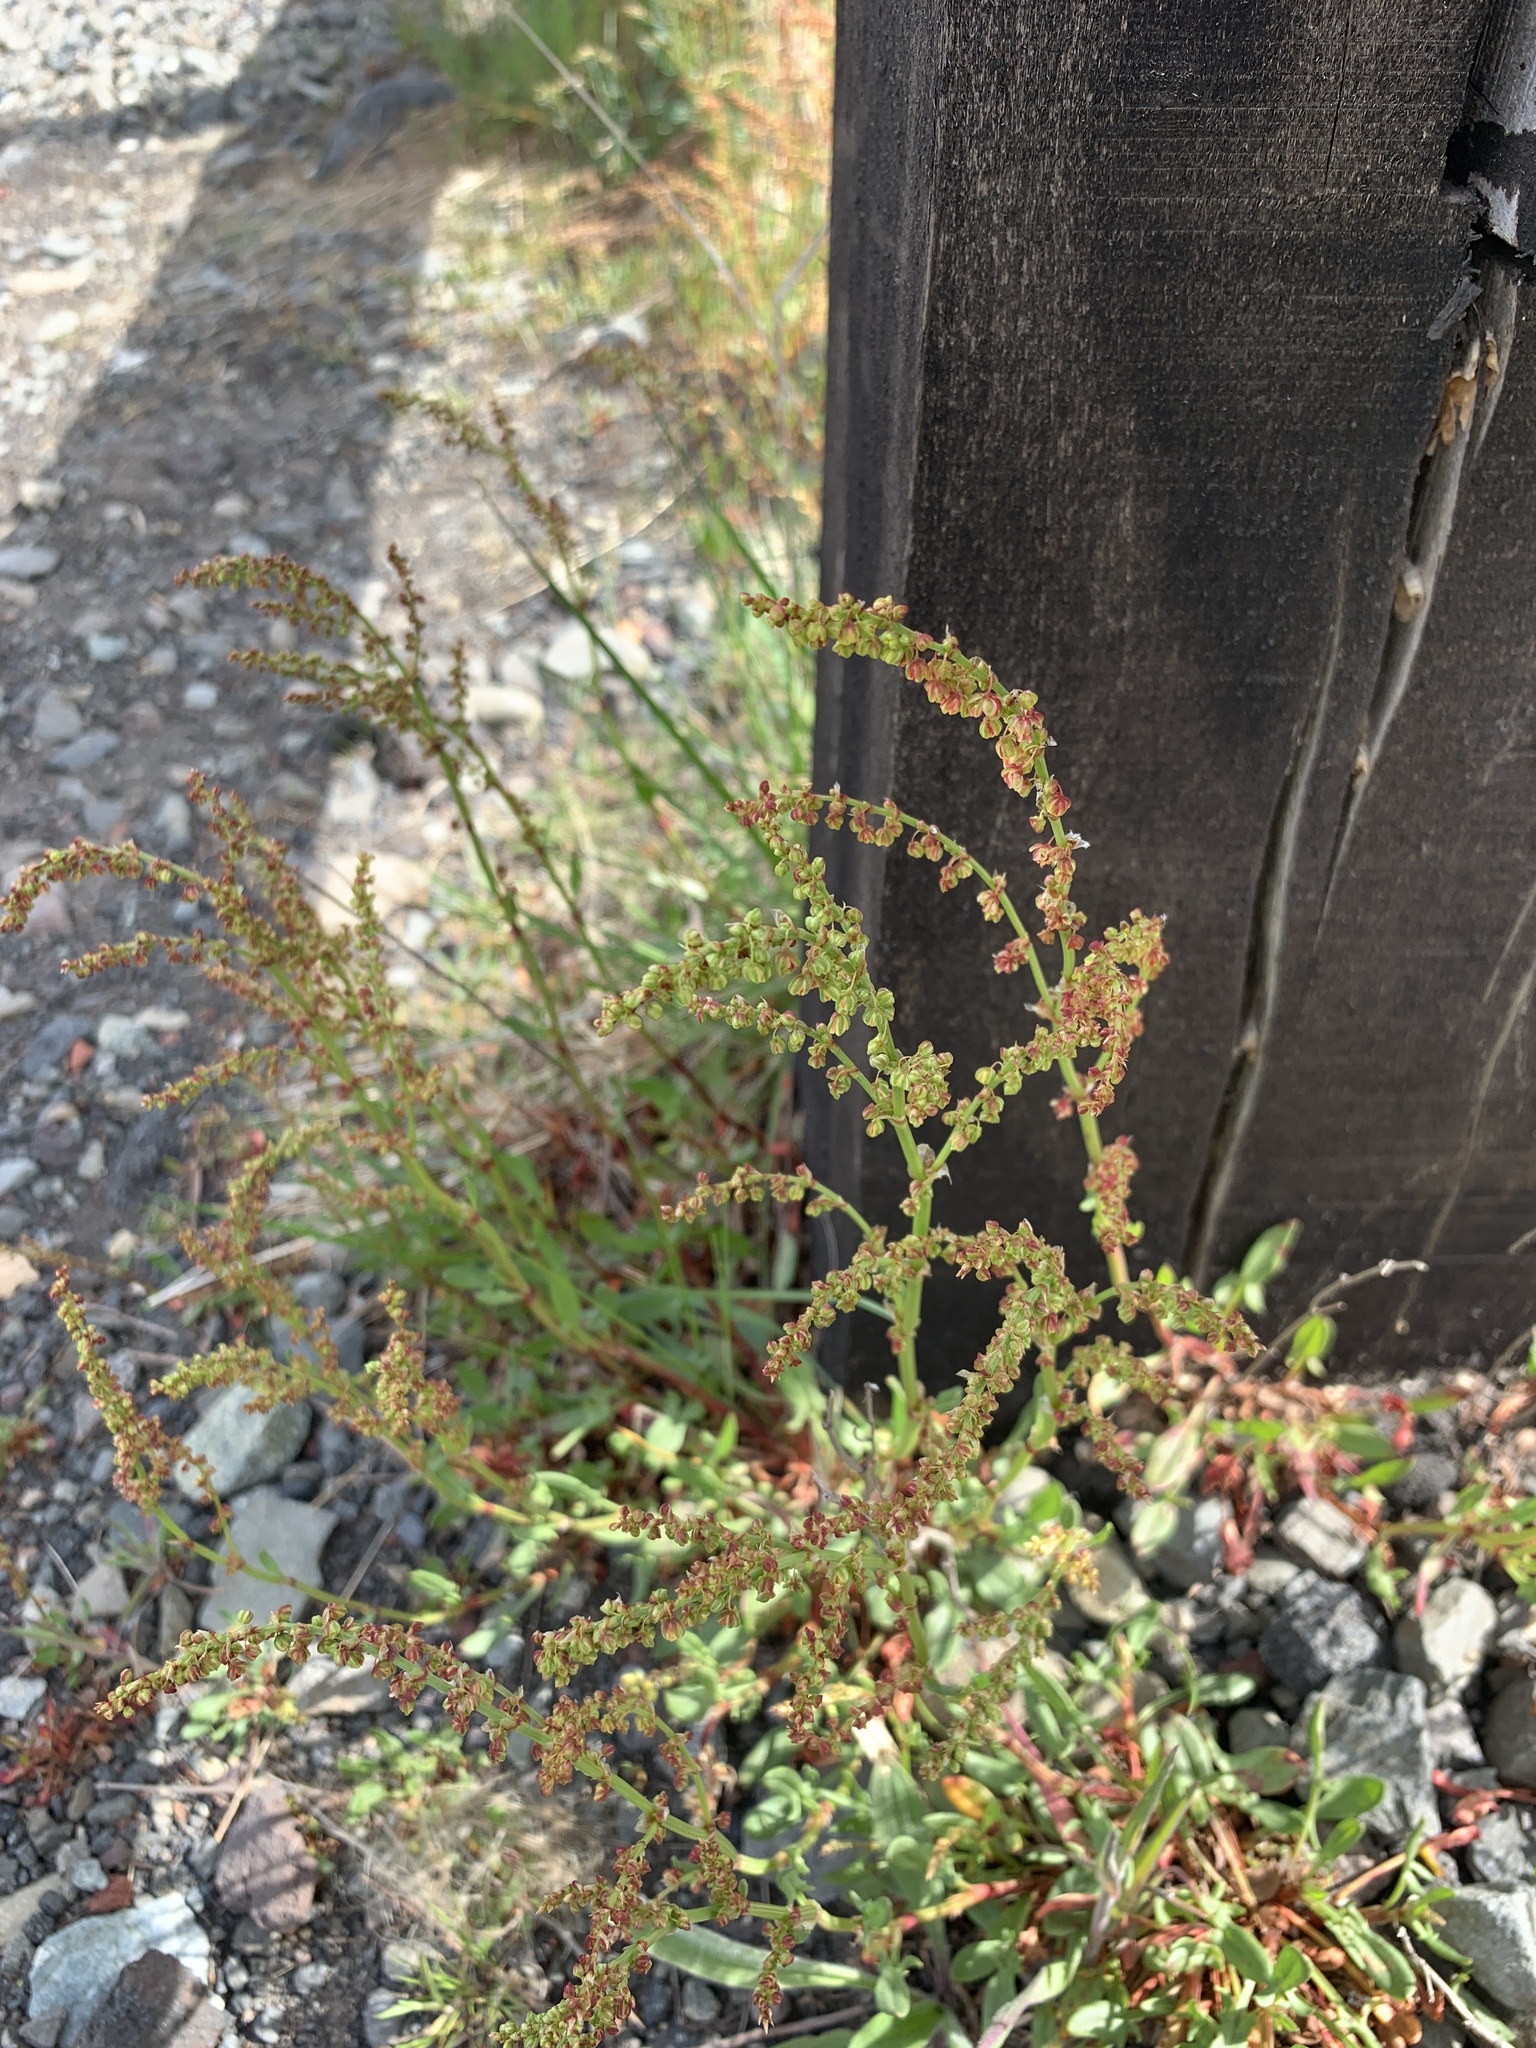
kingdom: Plantae
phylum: Tracheophyta
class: Magnoliopsida
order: Caryophyllales
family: Polygonaceae
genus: Rumex
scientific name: Rumex acetosella
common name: Common sheep sorrel
